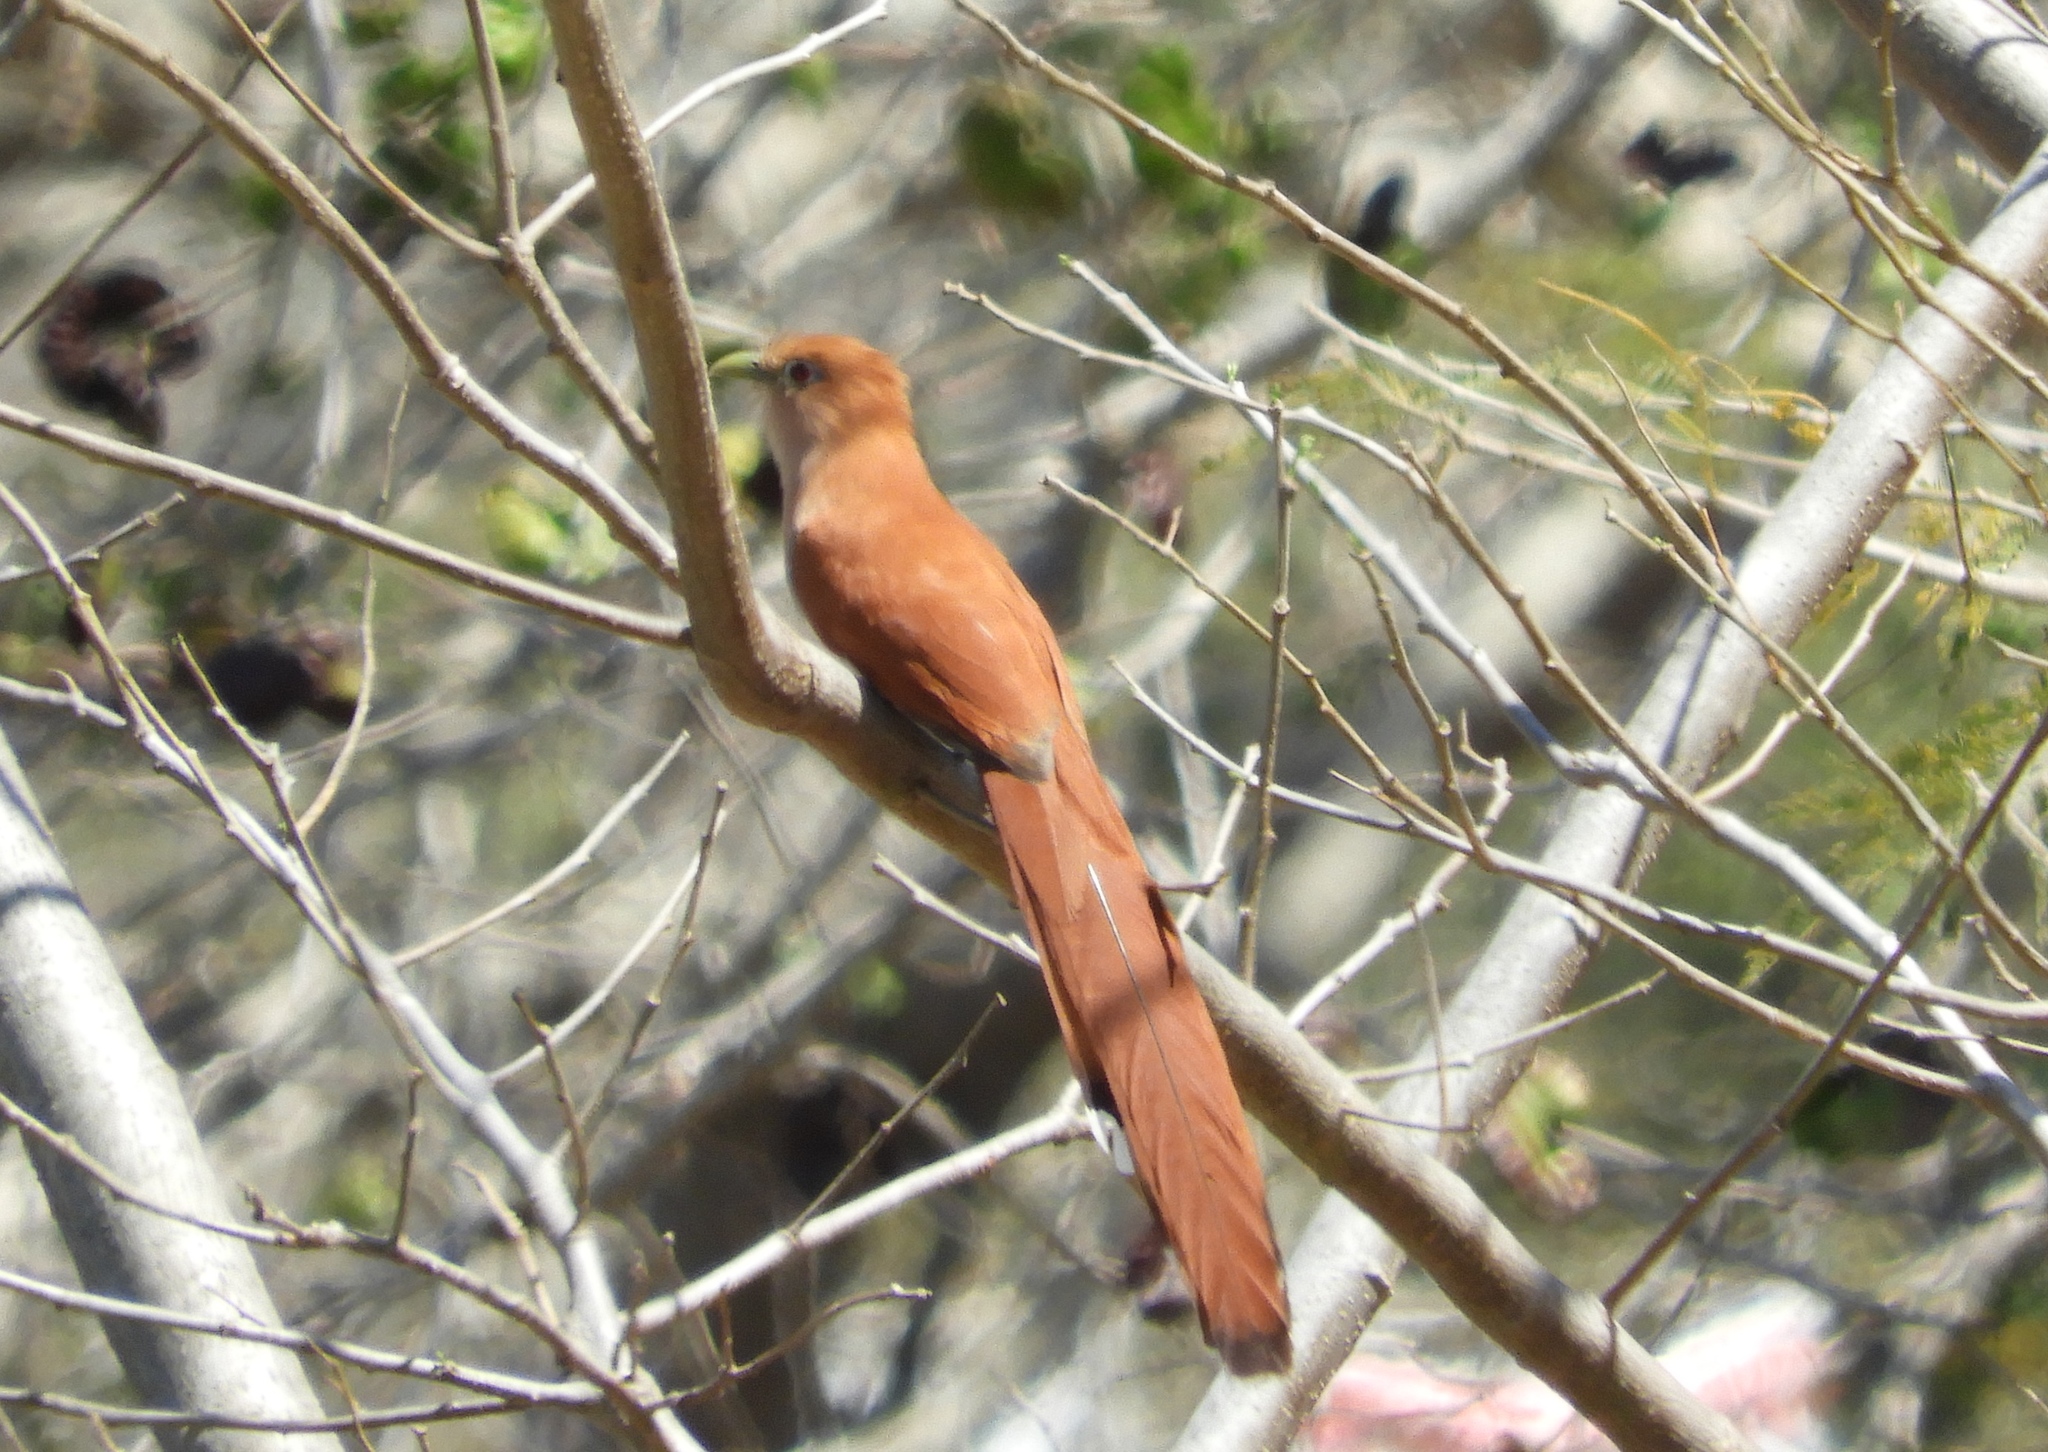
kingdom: Animalia
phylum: Chordata
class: Aves
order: Cuculiformes
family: Cuculidae
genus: Piaya
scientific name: Piaya cayana
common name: Squirrel cuckoo
